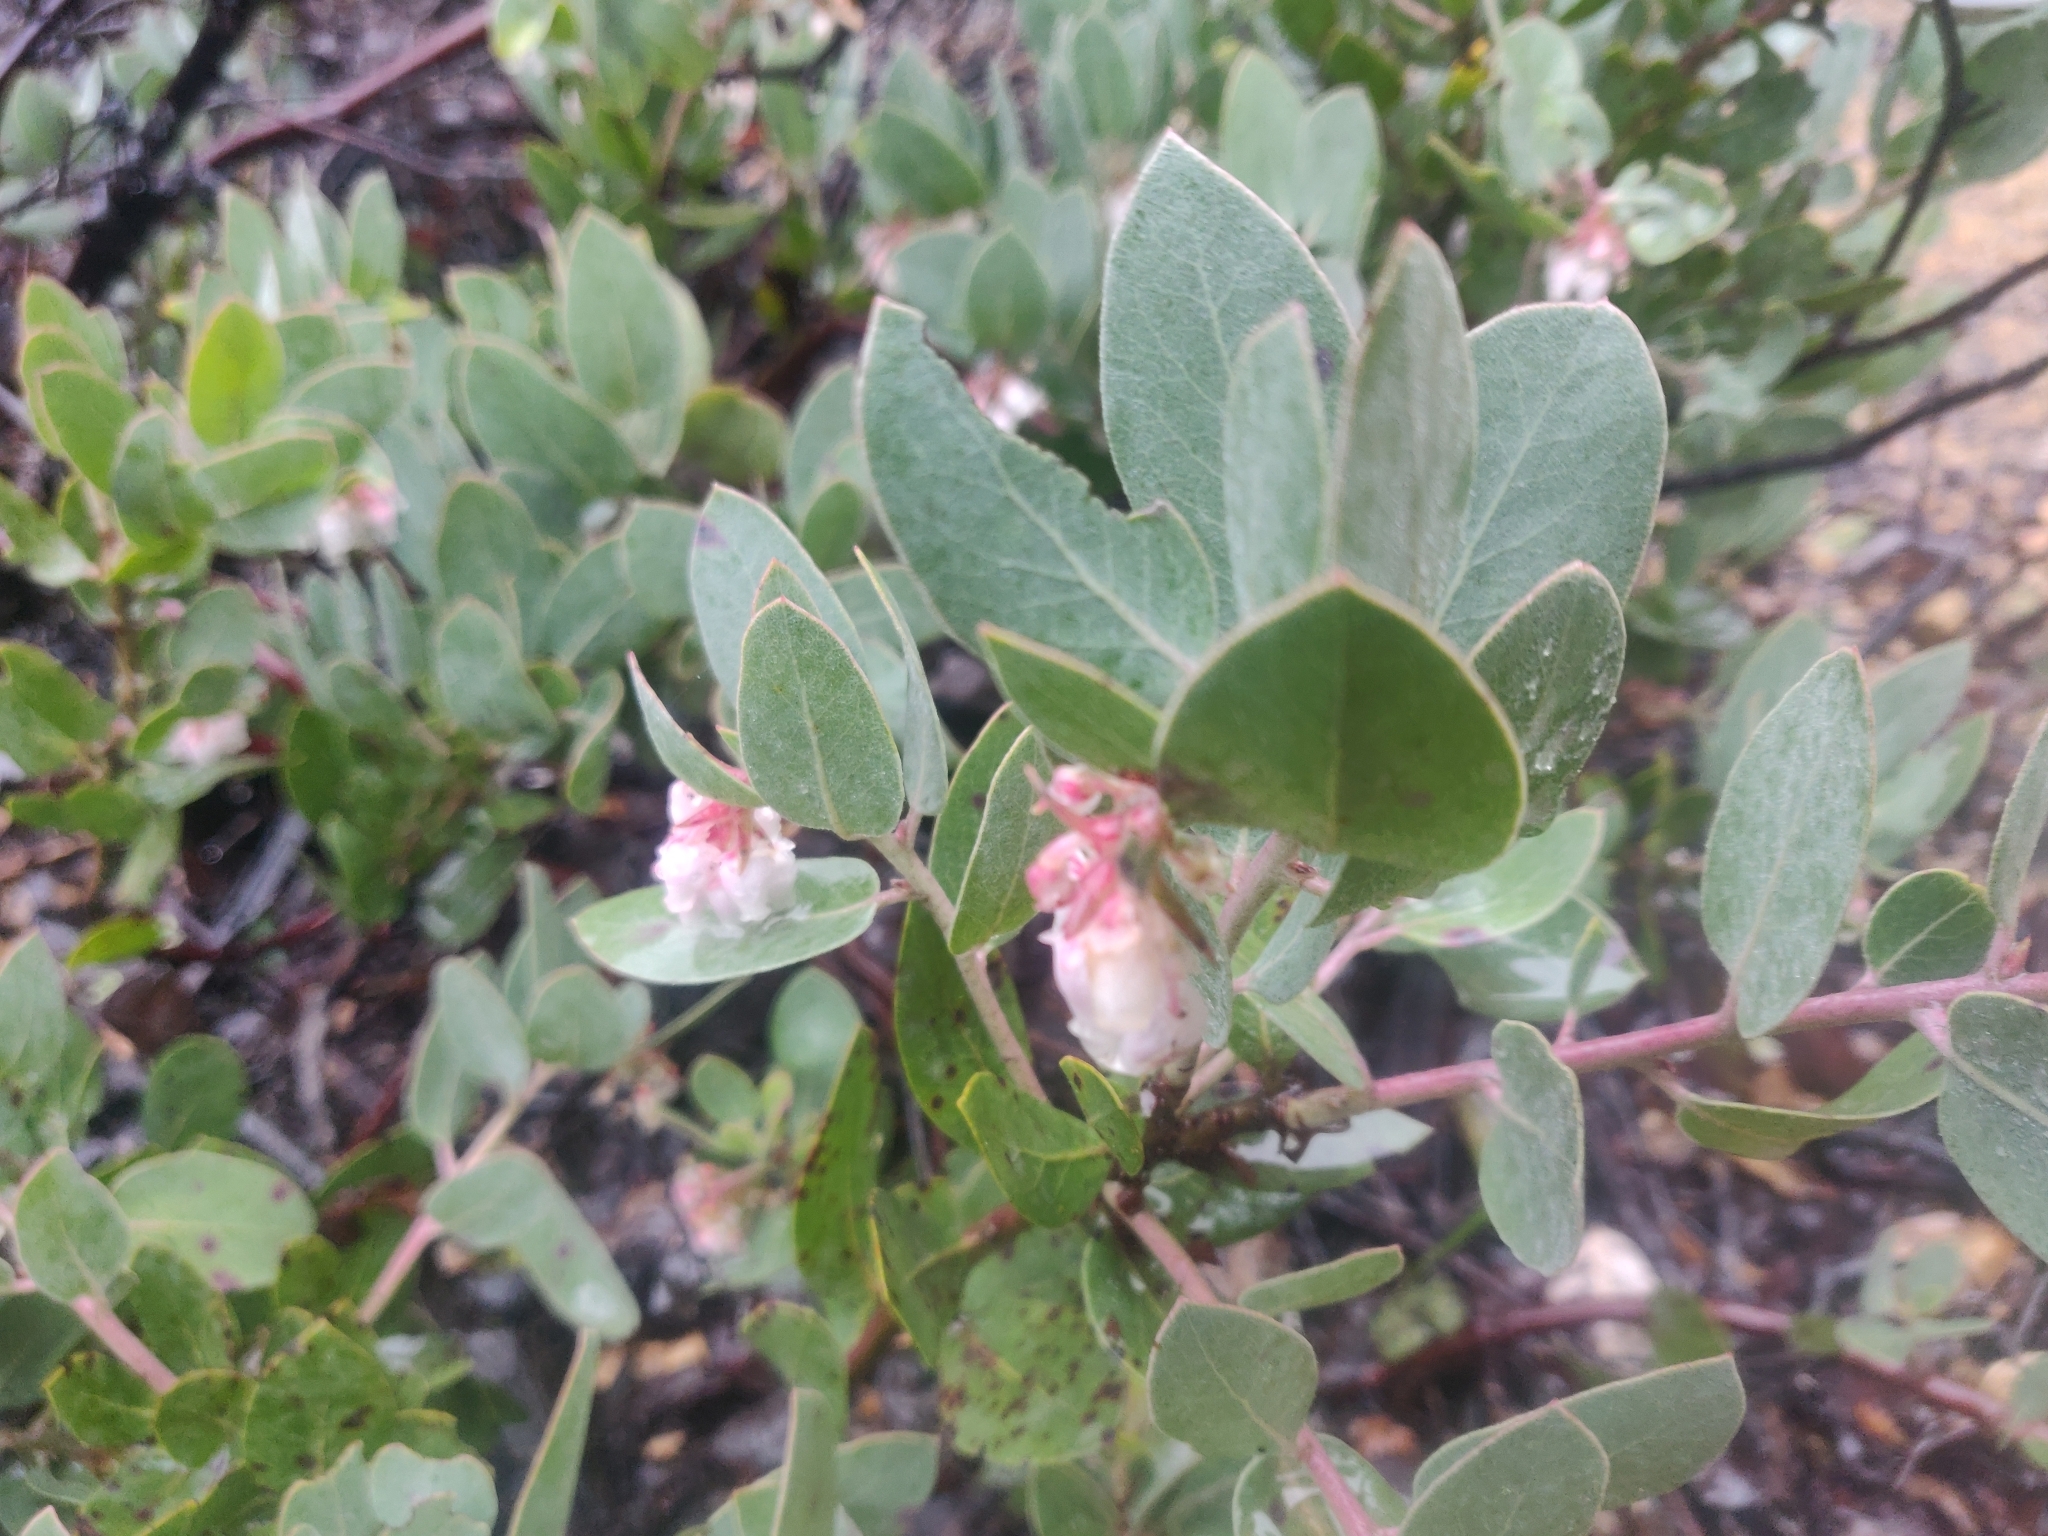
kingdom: Plantae
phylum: Tracheophyta
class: Magnoliopsida
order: Ericales
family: Ericaceae
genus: Arctostaphylos
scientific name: Arctostaphylos canescens
